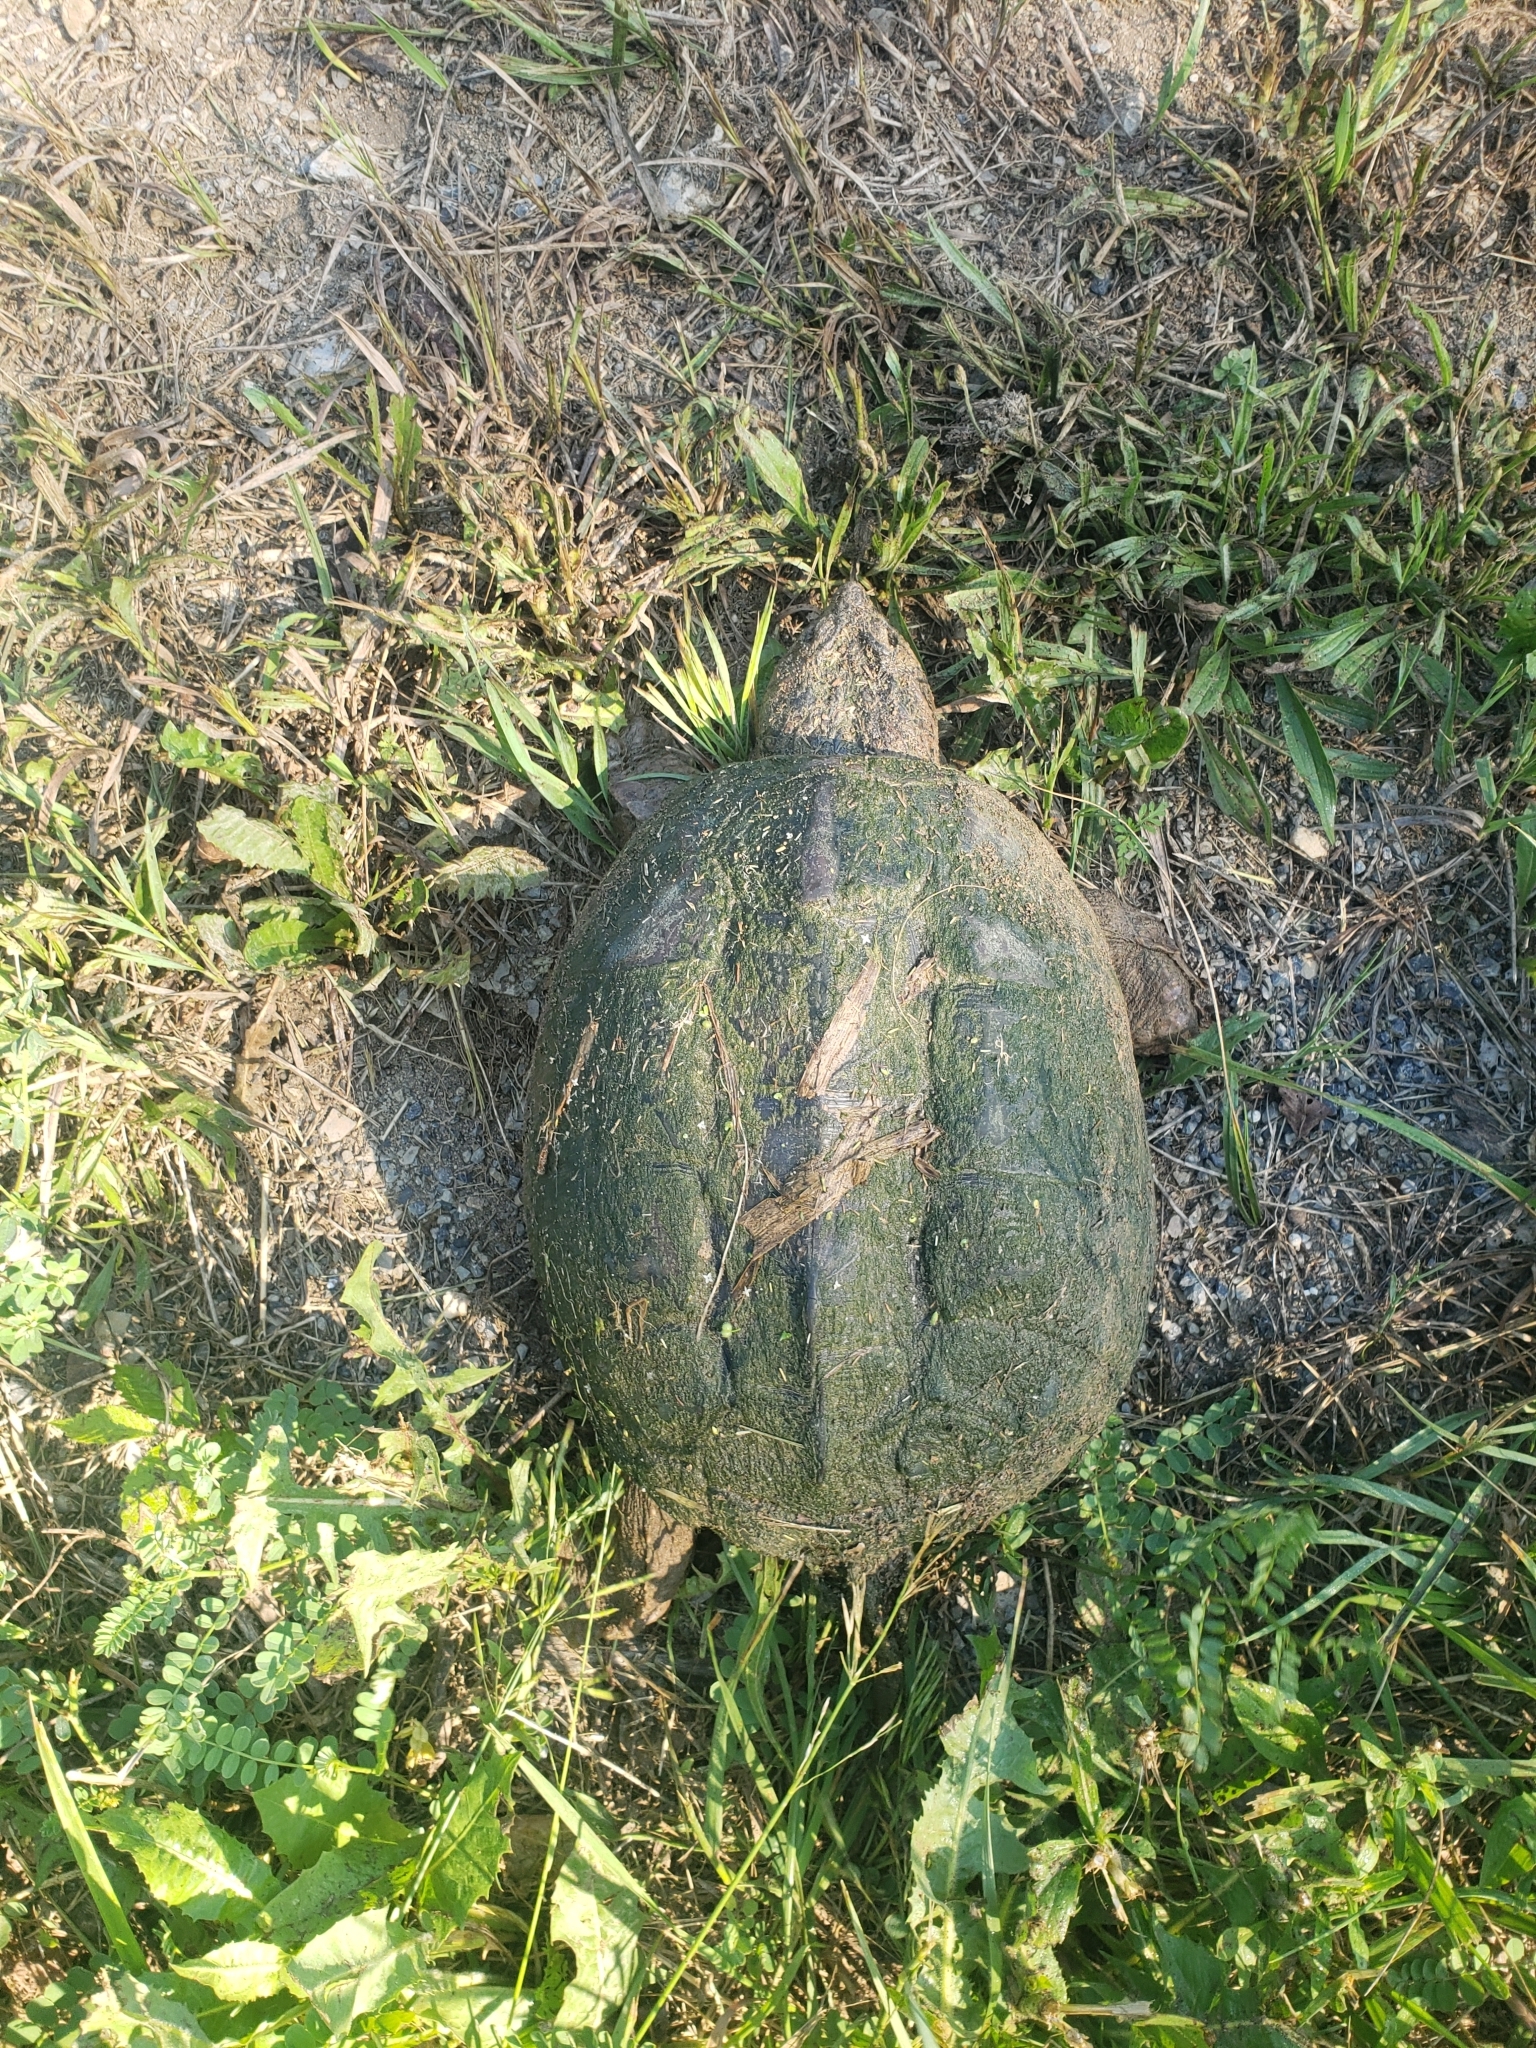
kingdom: Animalia
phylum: Chordata
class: Testudines
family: Chelydridae
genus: Chelydra
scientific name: Chelydra serpentina
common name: Common snapping turtle
